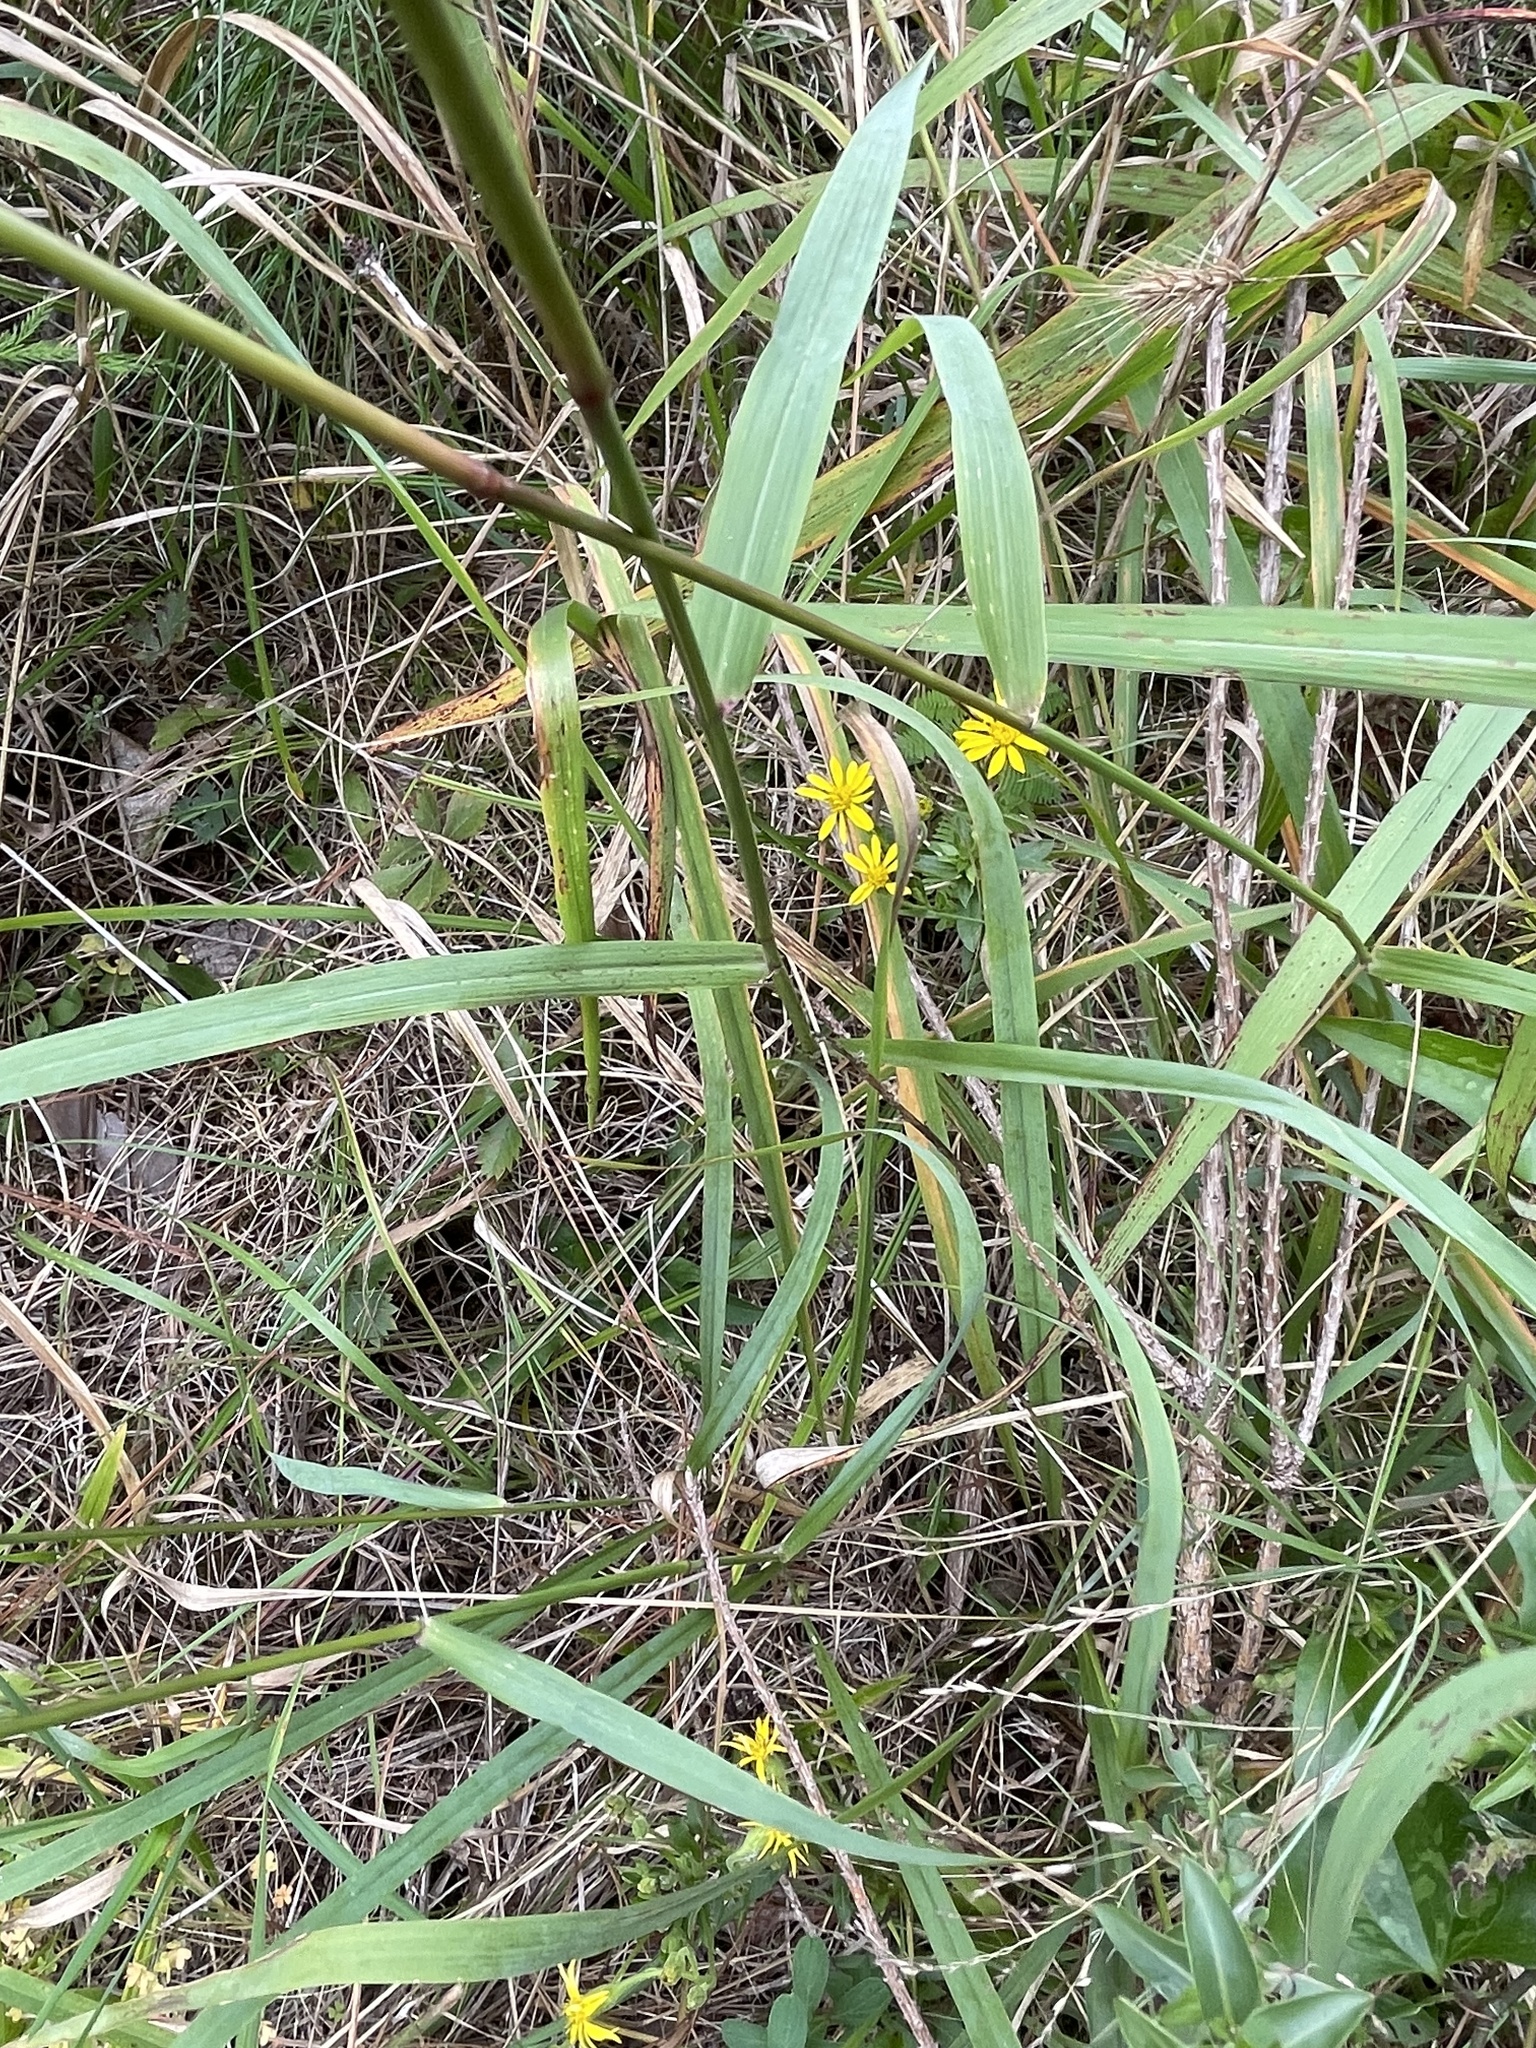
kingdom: Plantae
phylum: Tracheophyta
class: Liliopsida
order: Poales
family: Poaceae
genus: Tridens
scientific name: Tridens flavus
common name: Purpletop
